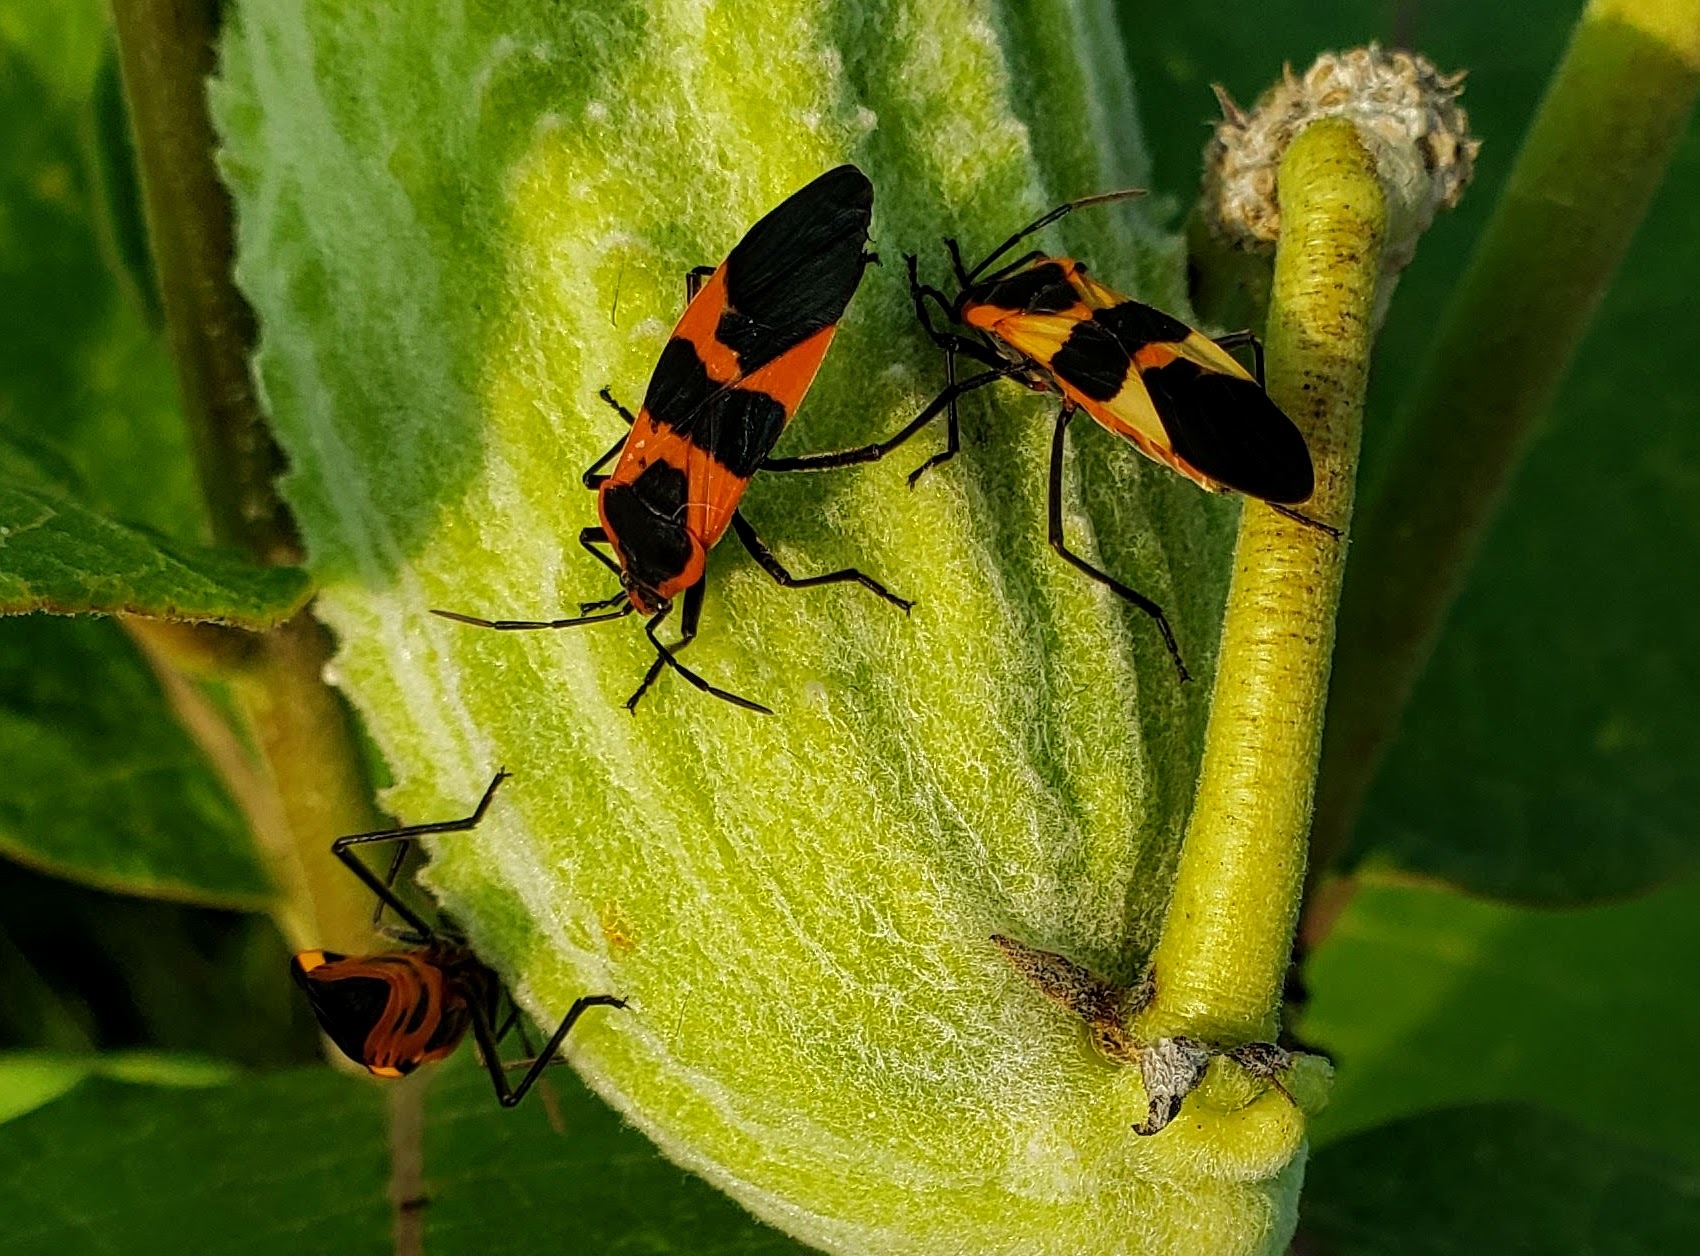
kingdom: Animalia
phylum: Arthropoda
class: Insecta
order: Hemiptera
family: Lygaeidae
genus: Oncopeltus
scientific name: Oncopeltus fasciatus
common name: Large milkweed bug
